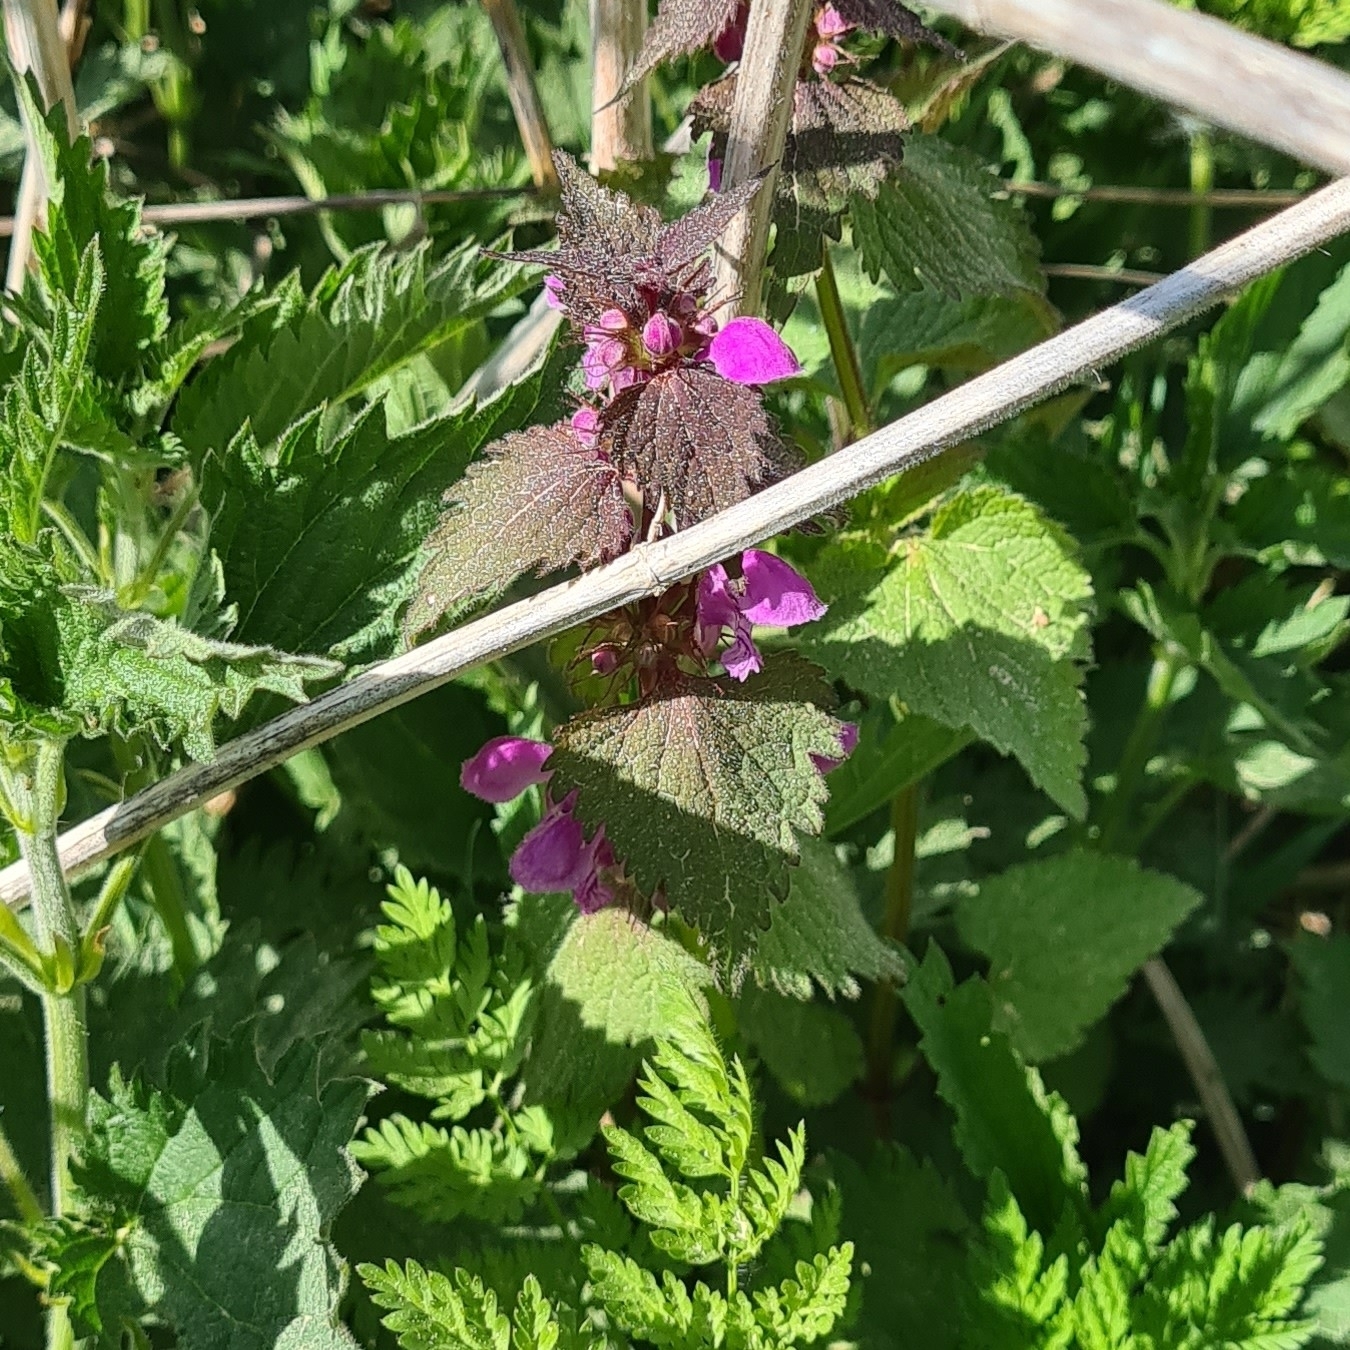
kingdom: Plantae
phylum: Tracheophyta
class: Magnoliopsida
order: Lamiales
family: Lamiaceae
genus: Lamium
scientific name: Lamium maculatum
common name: Spotted dead-nettle
